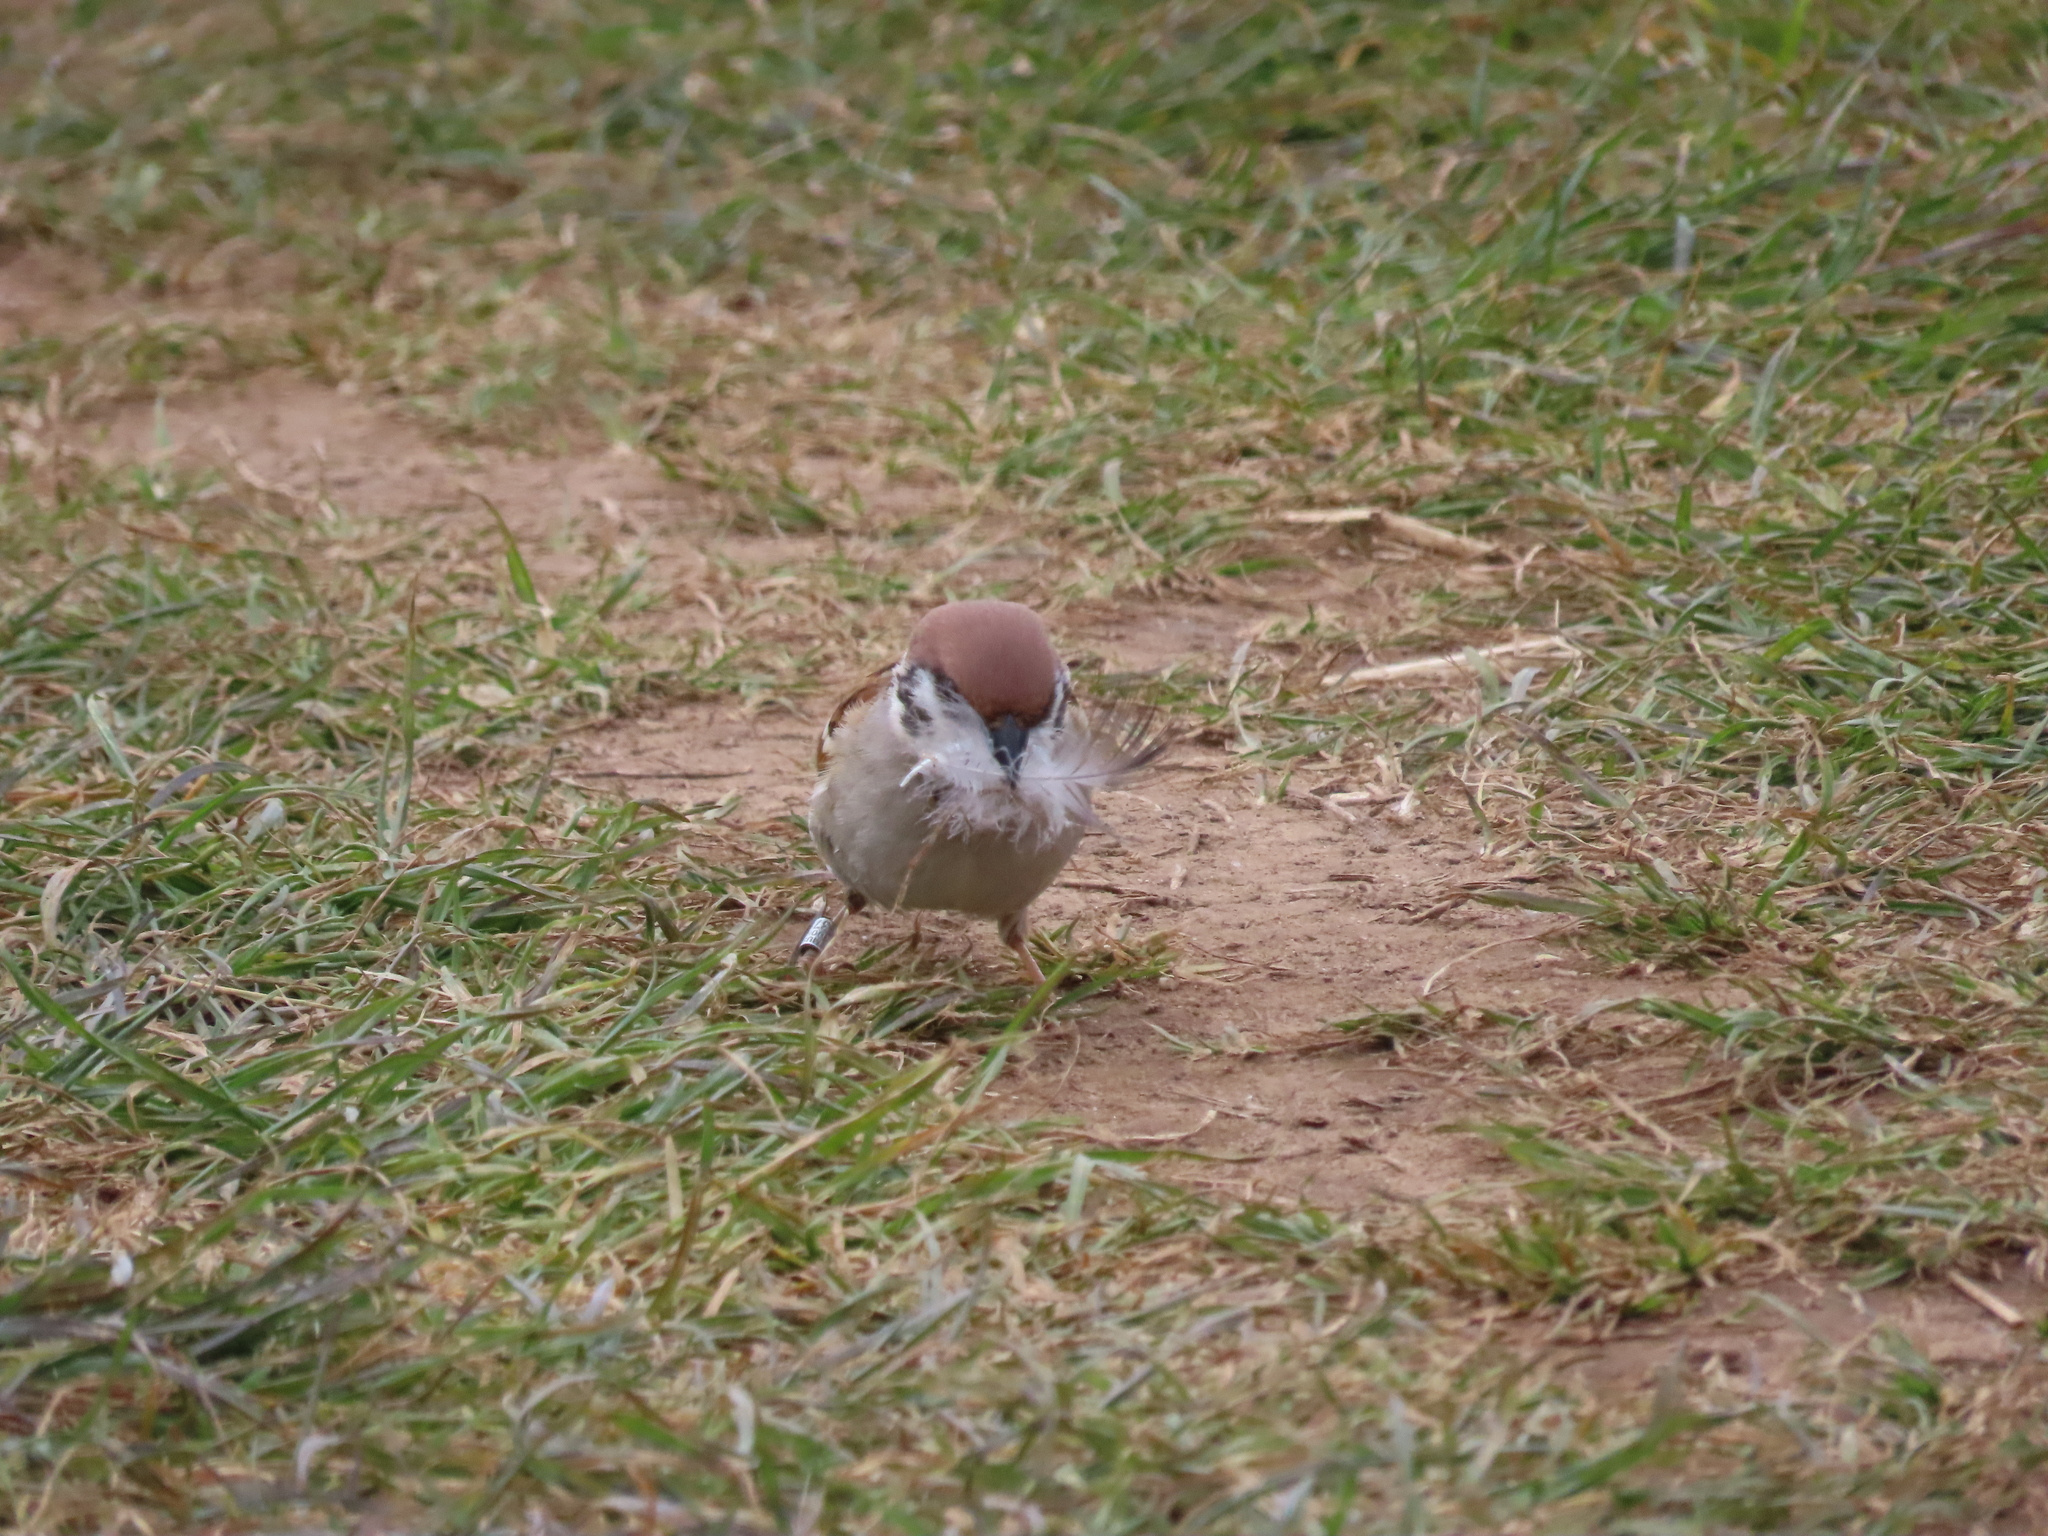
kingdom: Animalia
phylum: Chordata
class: Aves
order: Passeriformes
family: Passeridae
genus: Passer
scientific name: Passer montanus
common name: Eurasian tree sparrow
